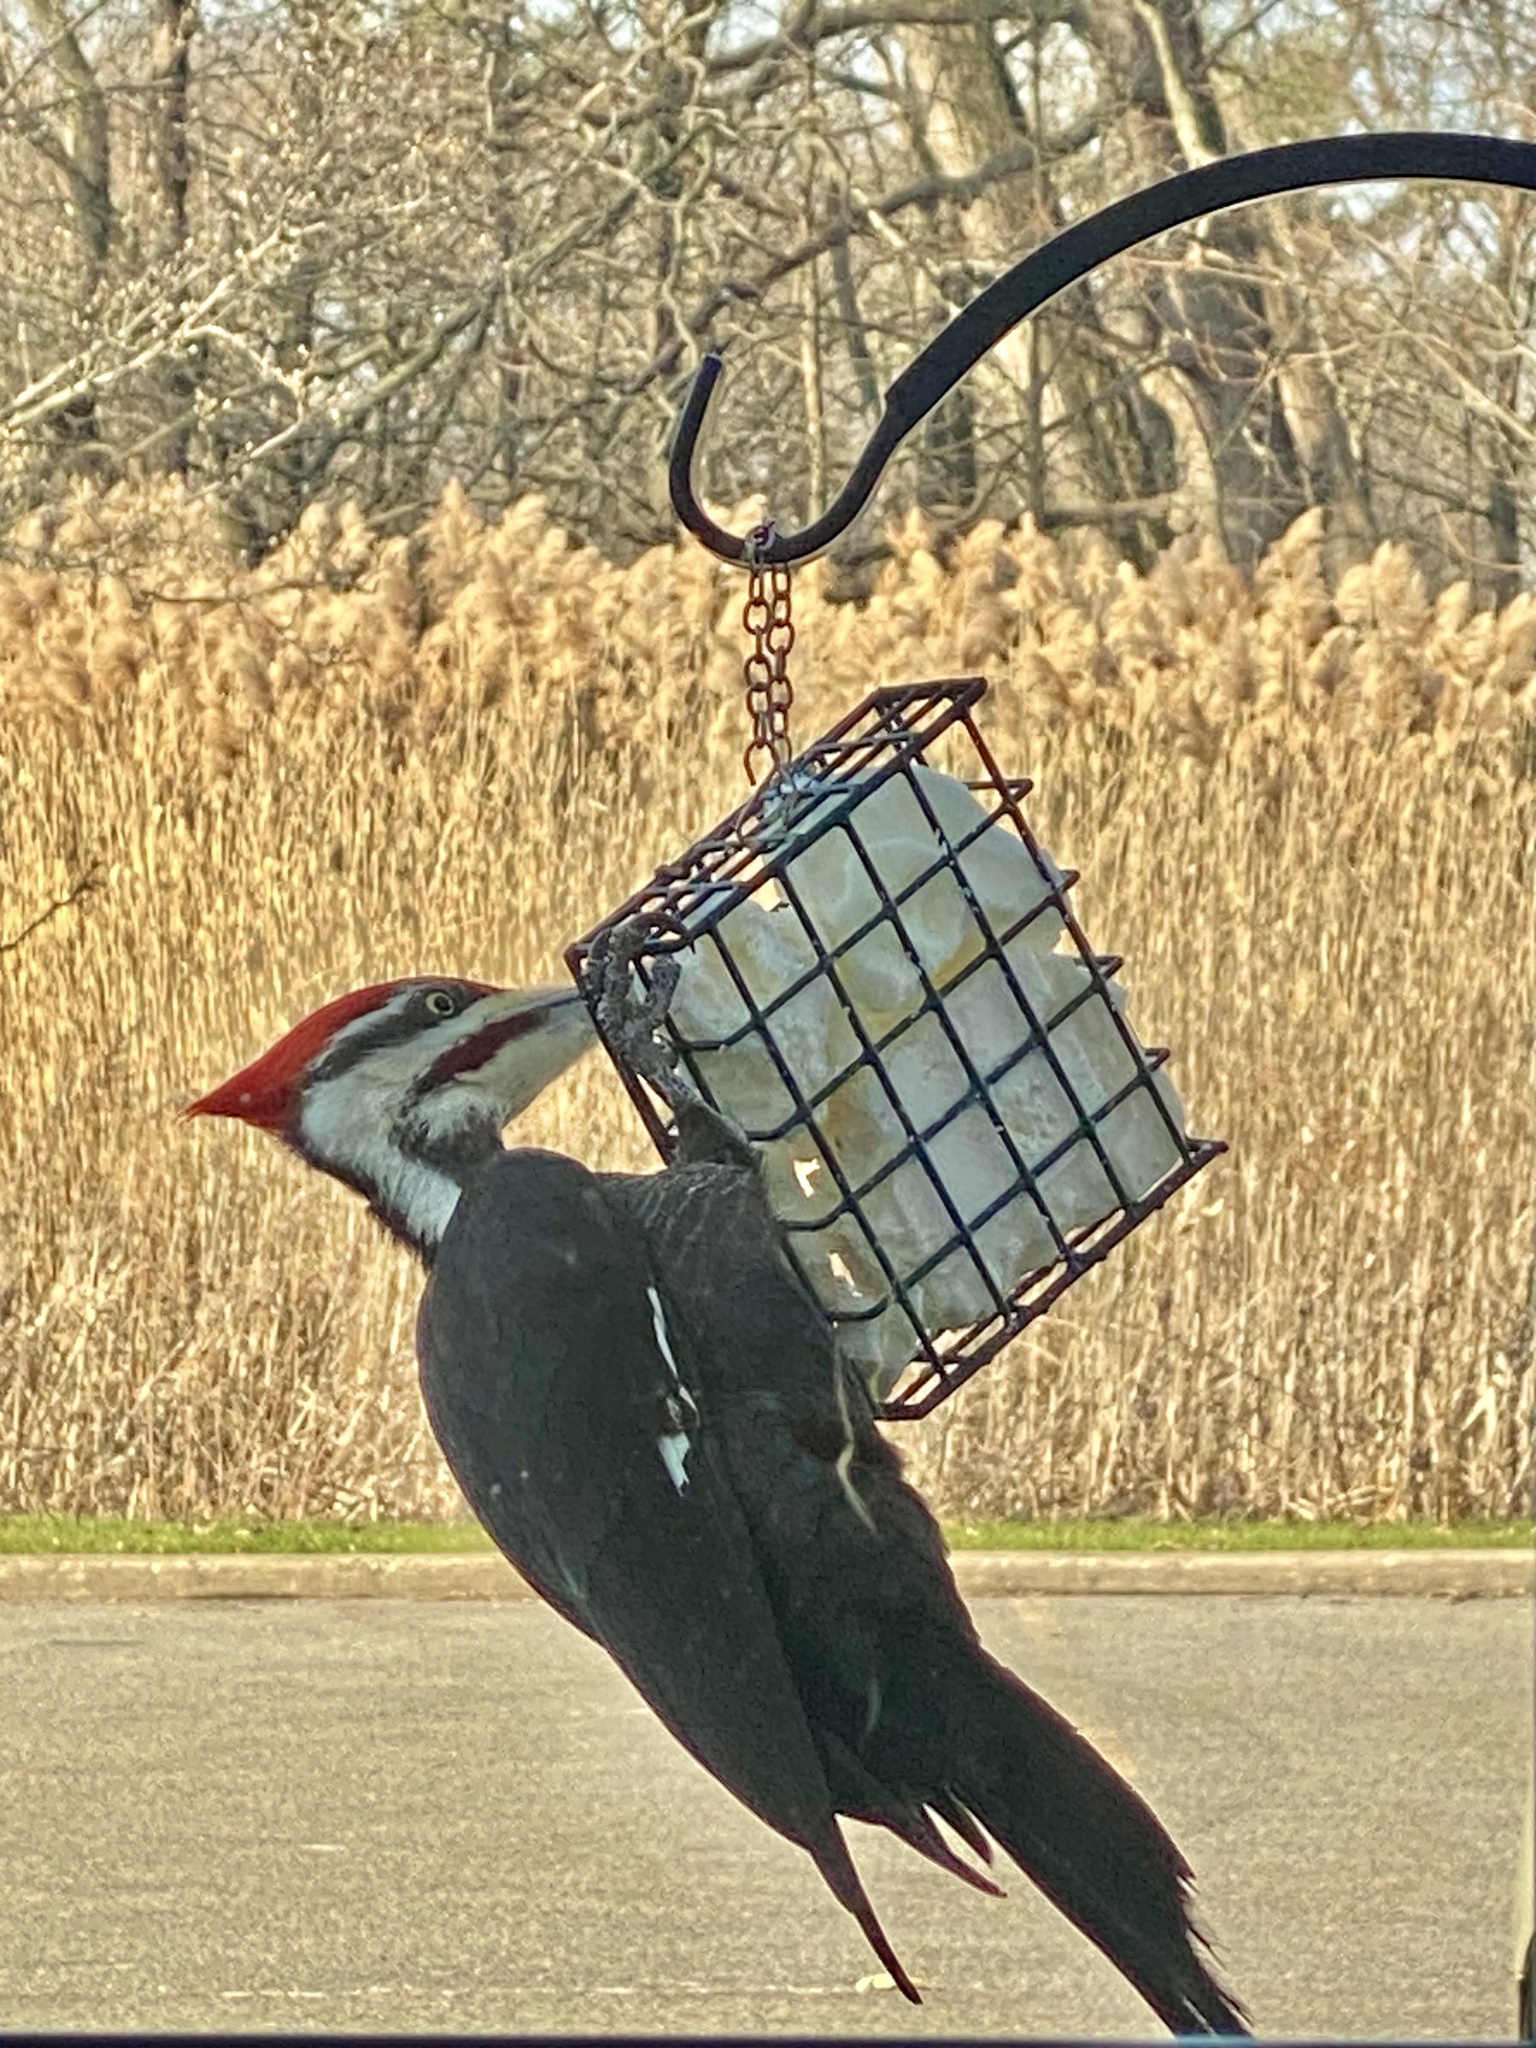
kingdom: Animalia
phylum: Chordata
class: Aves
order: Piciformes
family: Picidae
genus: Dryocopus
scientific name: Dryocopus pileatus
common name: Pileated woodpecker
